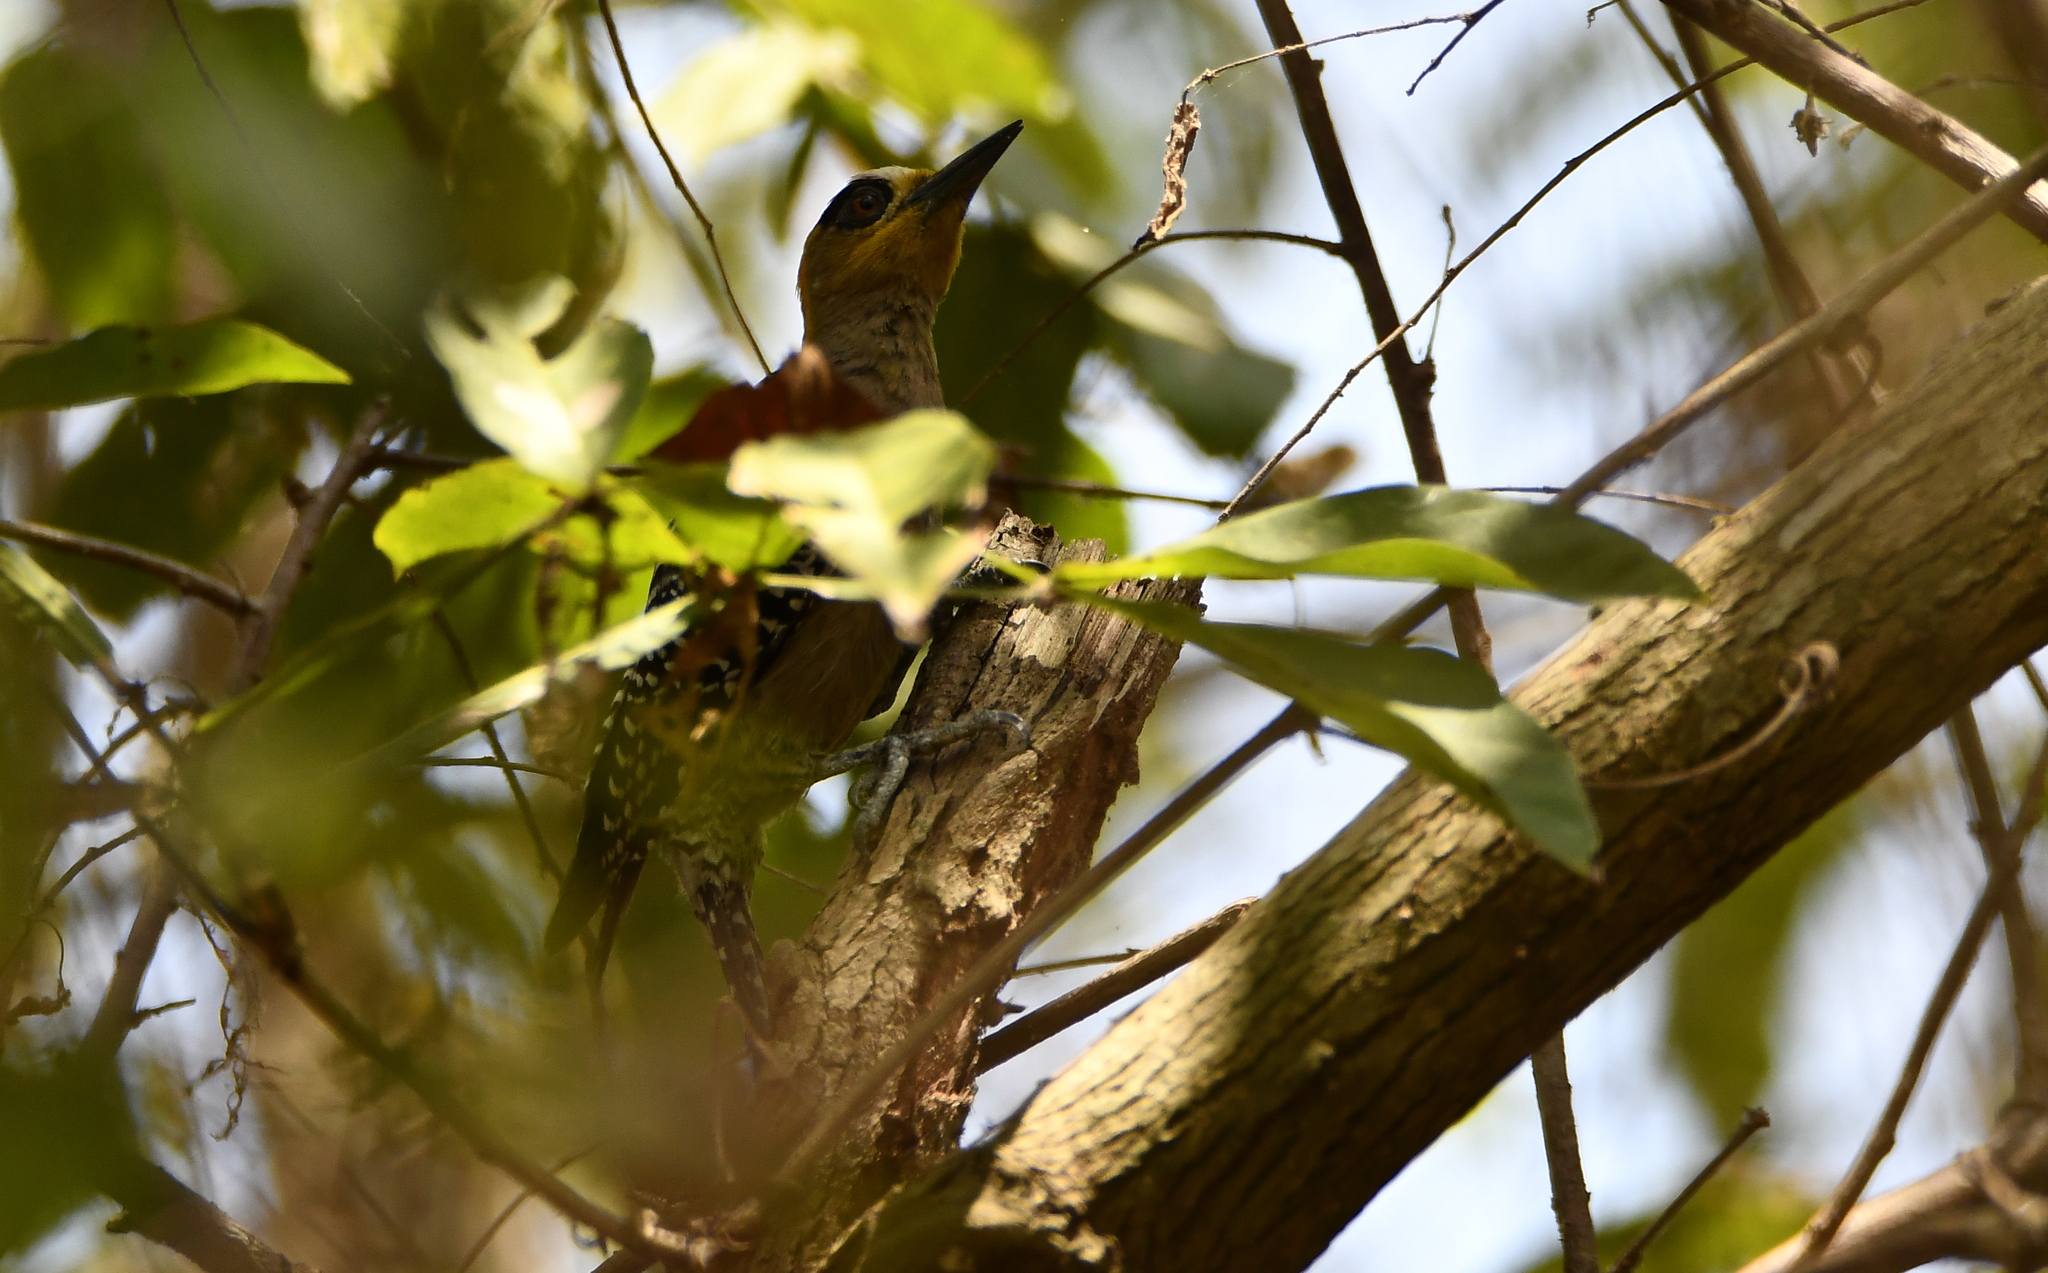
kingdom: Animalia
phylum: Chordata
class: Aves
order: Piciformes
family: Picidae
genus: Melanerpes
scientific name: Melanerpes chrysogenys
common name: Golden-cheeked woodpecker
